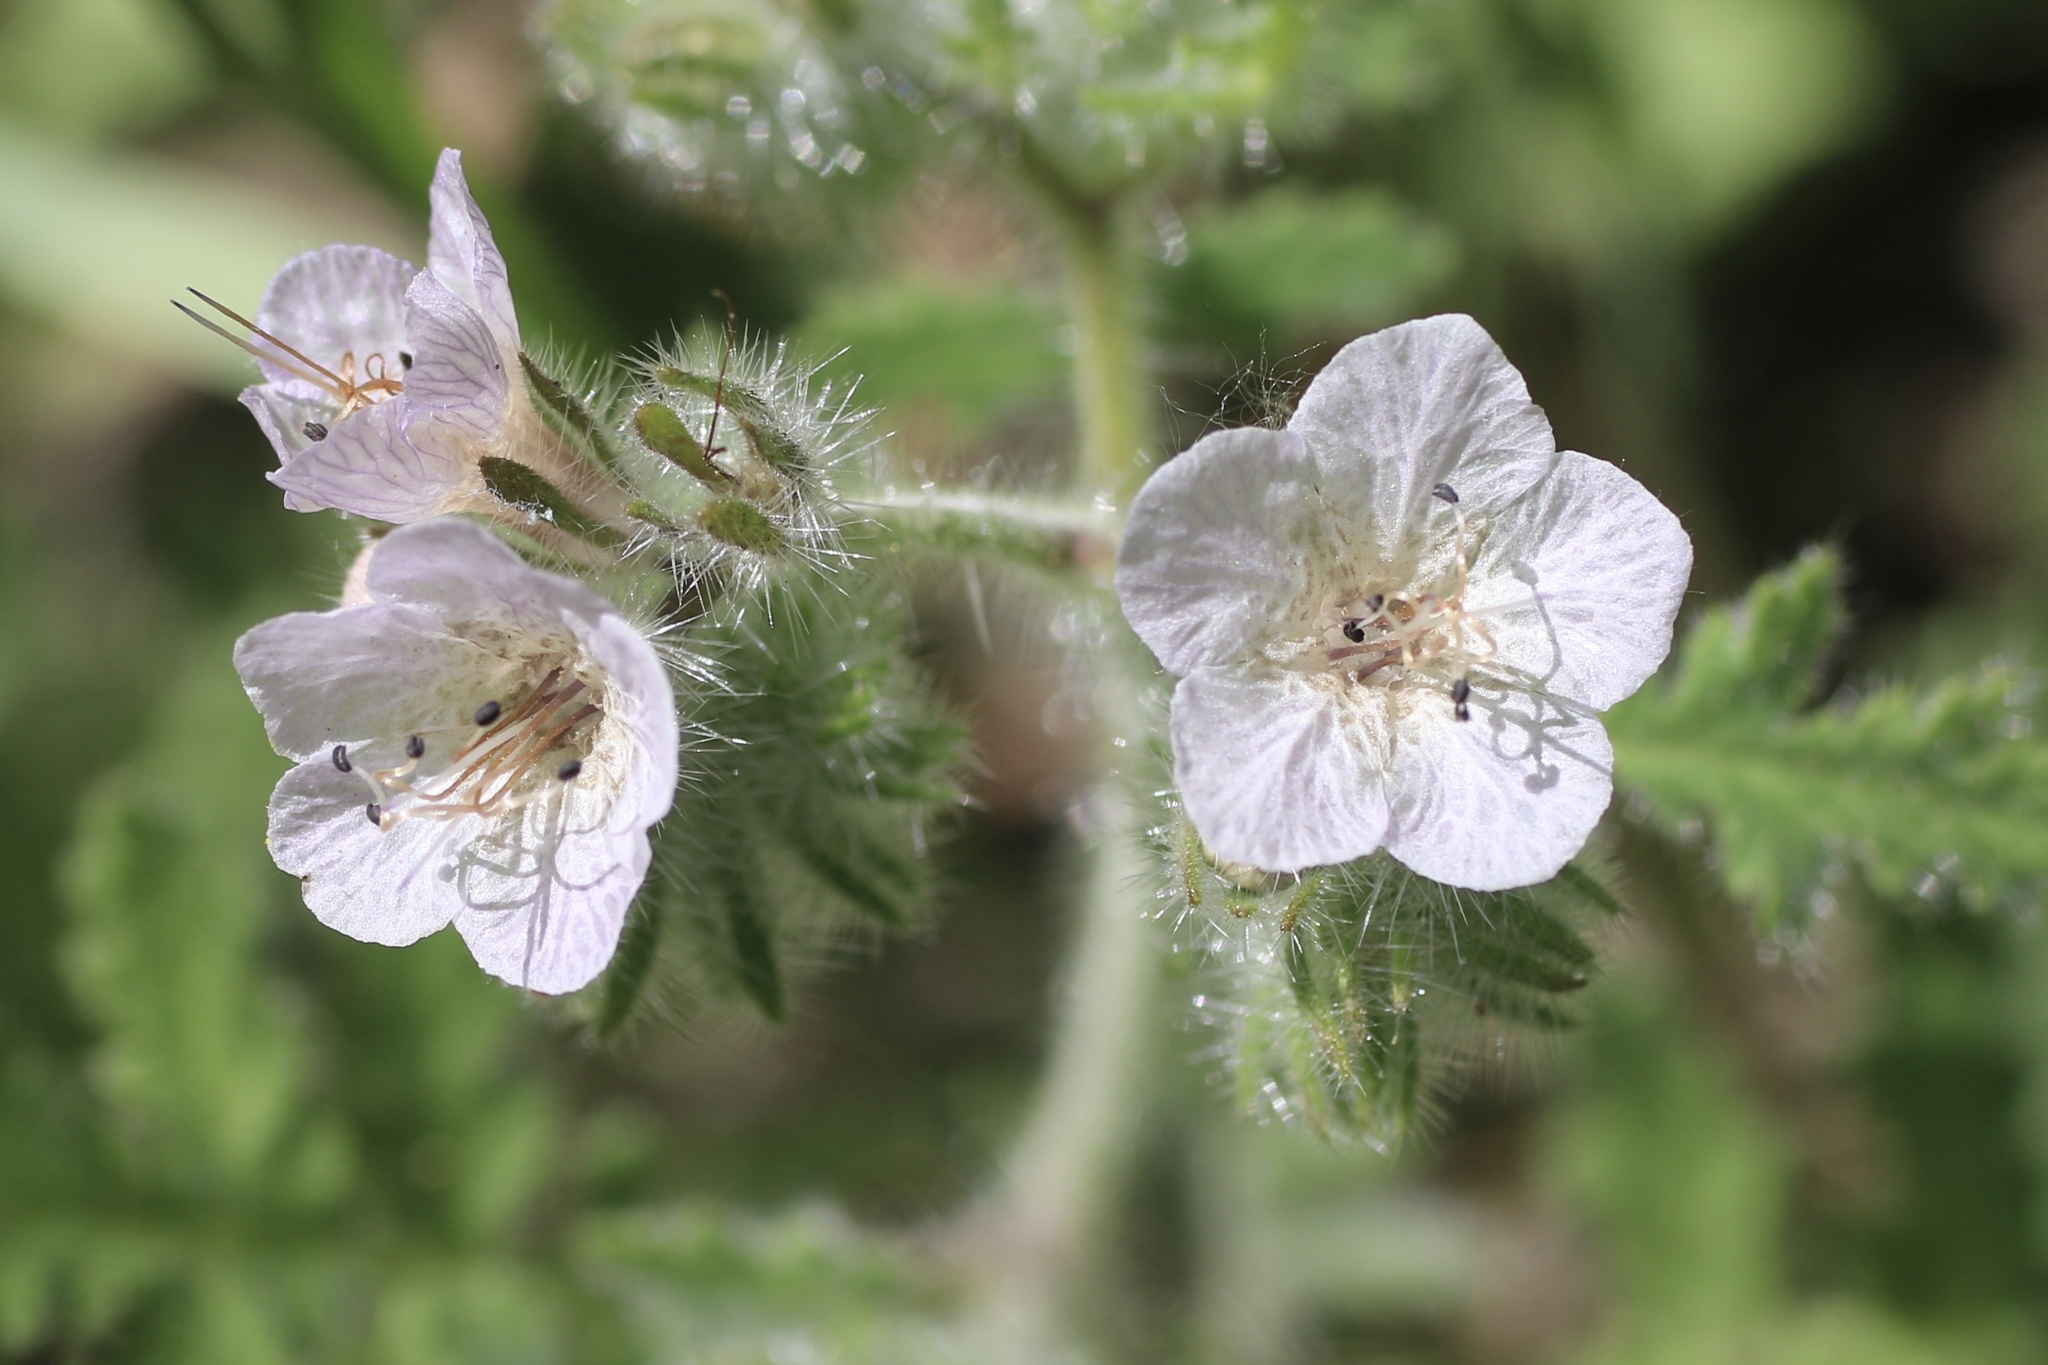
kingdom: Plantae
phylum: Tracheophyta
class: Magnoliopsida
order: Boraginales
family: Hydrophyllaceae
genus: Phacelia
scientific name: Phacelia cicutaria
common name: Caterpillar phacelia
